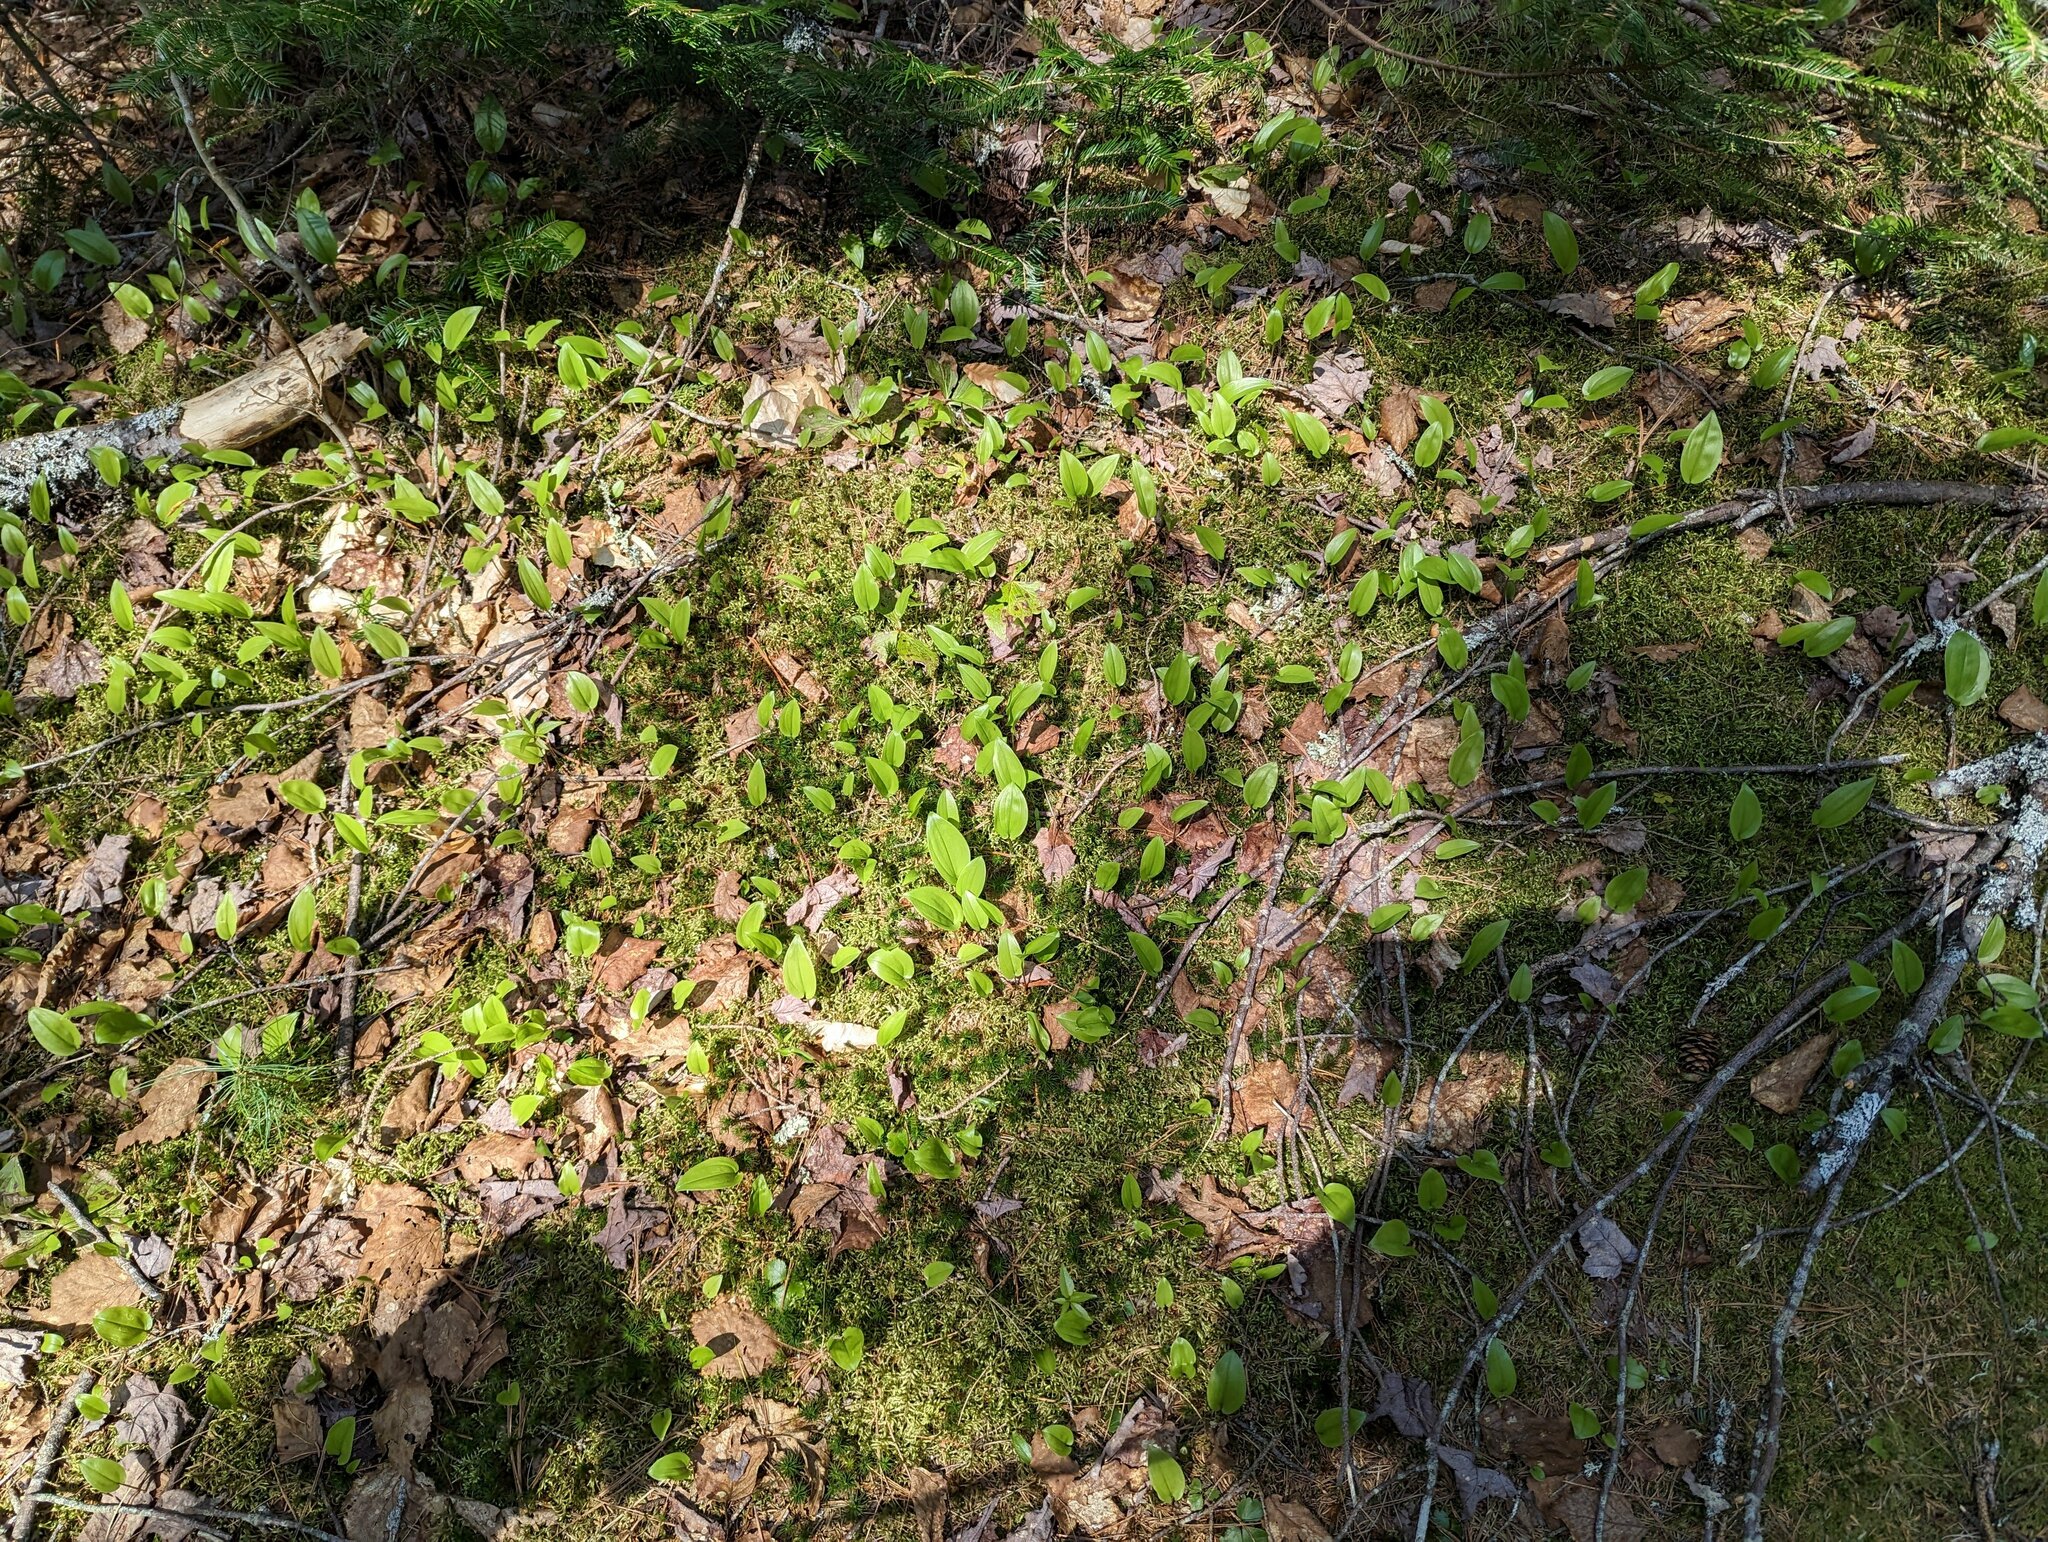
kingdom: Plantae
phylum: Tracheophyta
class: Liliopsida
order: Asparagales
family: Asparagaceae
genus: Maianthemum
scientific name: Maianthemum canadense
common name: False lily-of-the-valley
